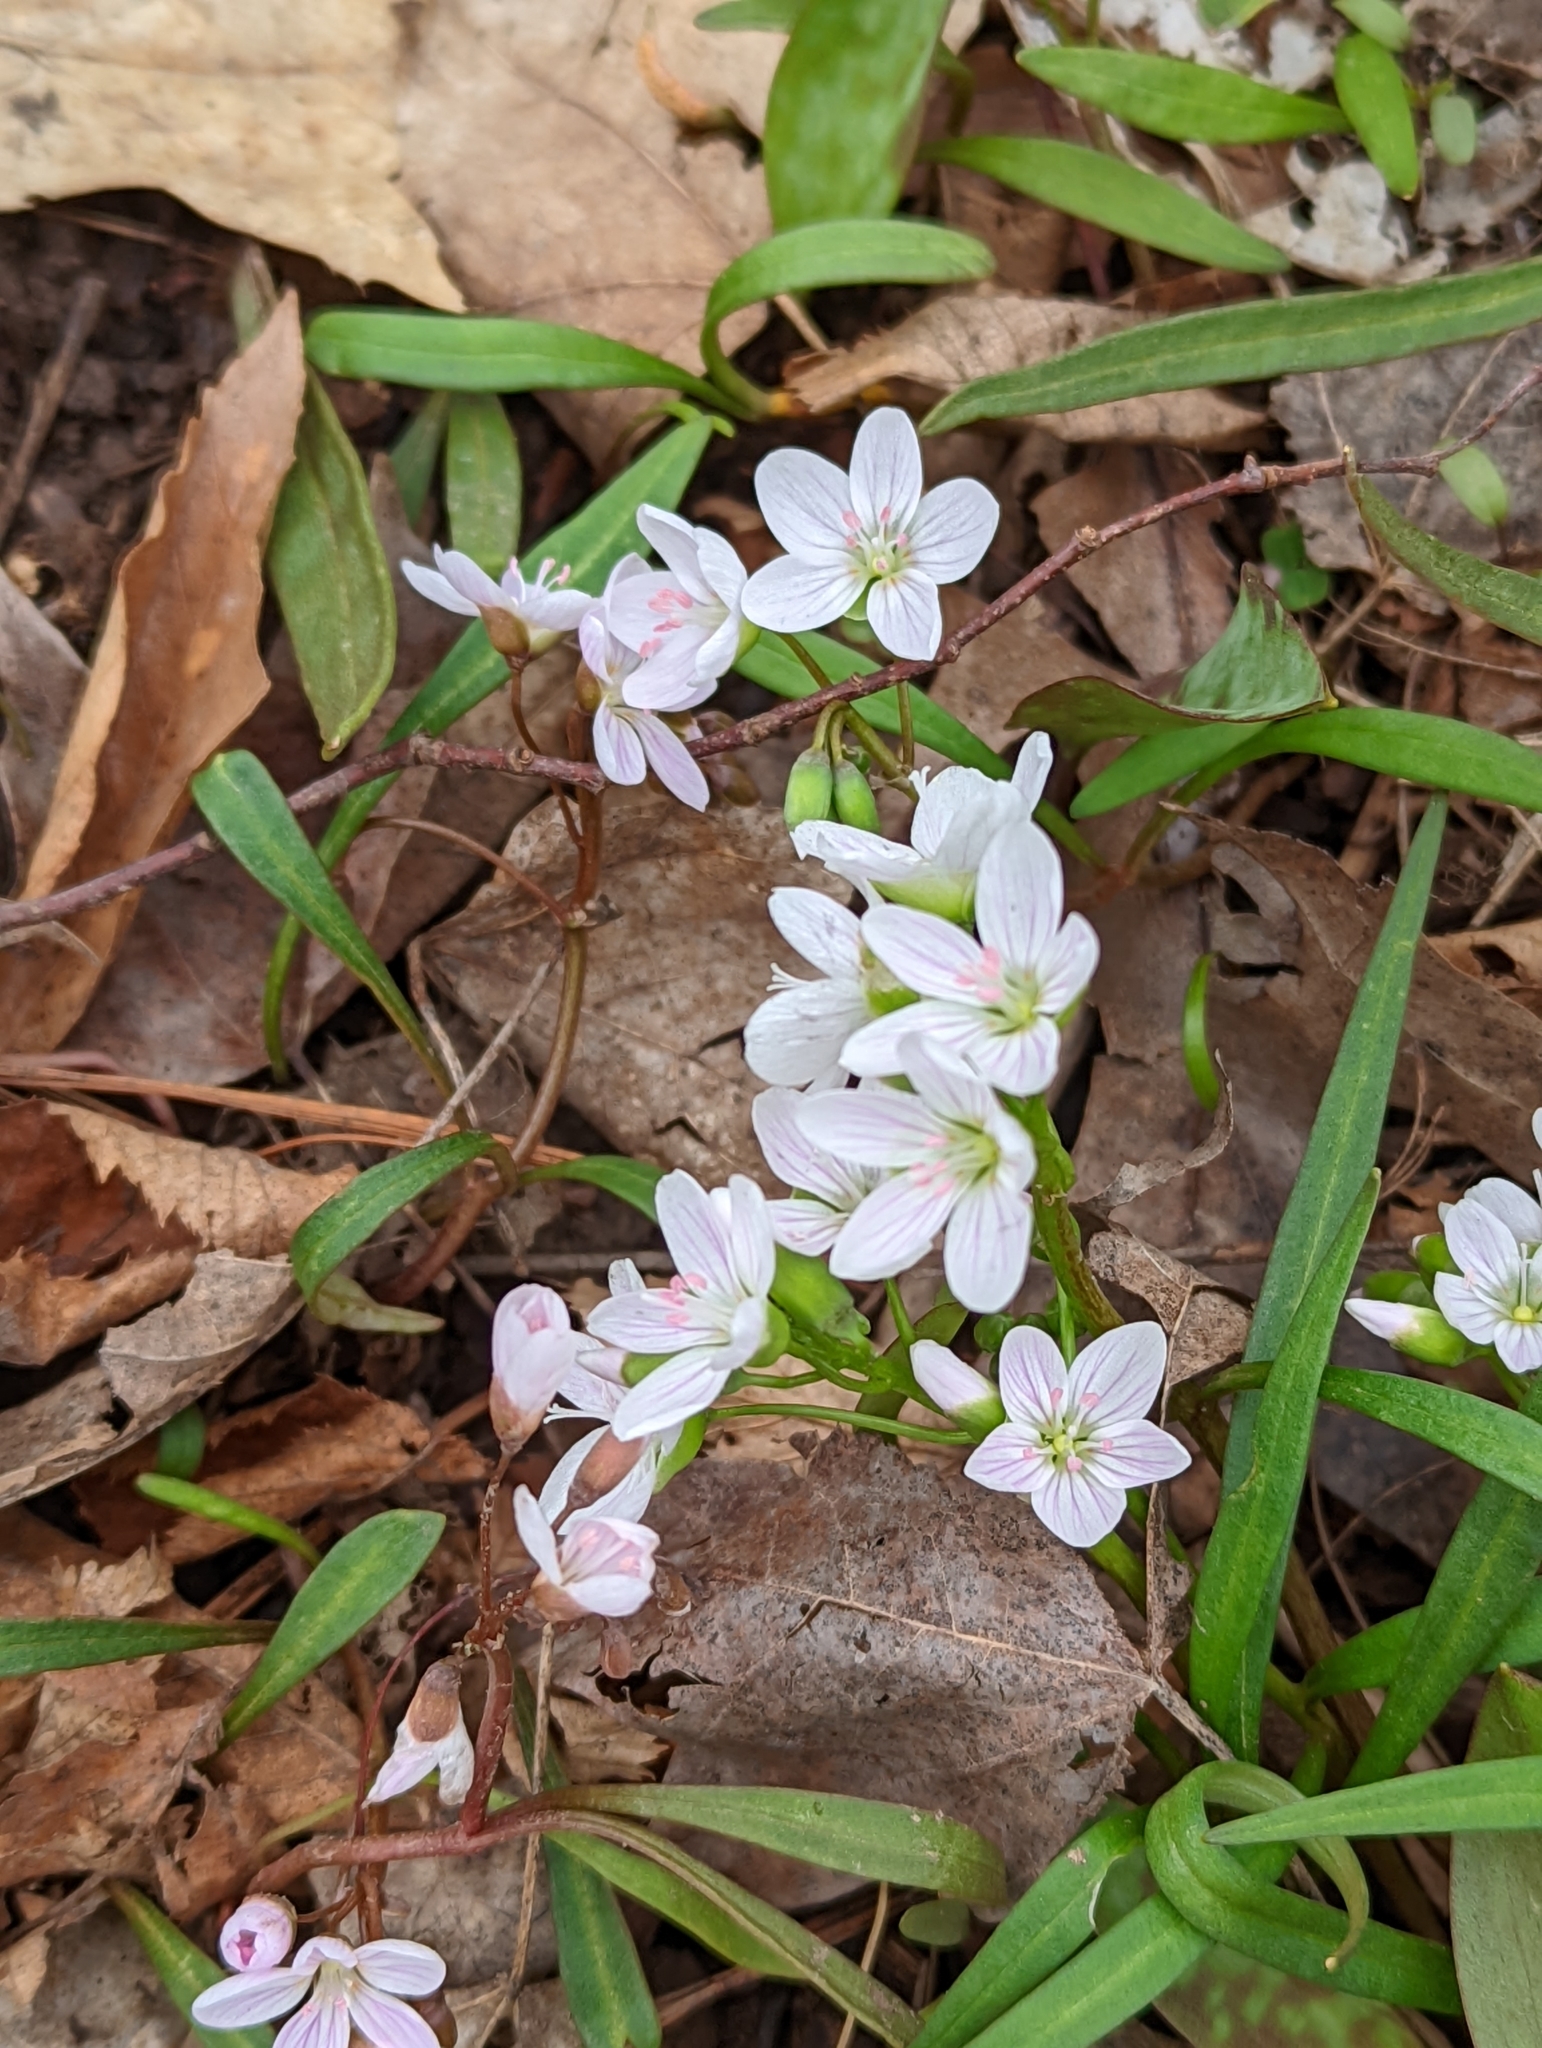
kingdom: Plantae
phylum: Tracheophyta
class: Magnoliopsida
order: Caryophyllales
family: Montiaceae
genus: Claytonia
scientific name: Claytonia virginica
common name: Virginia springbeauty
